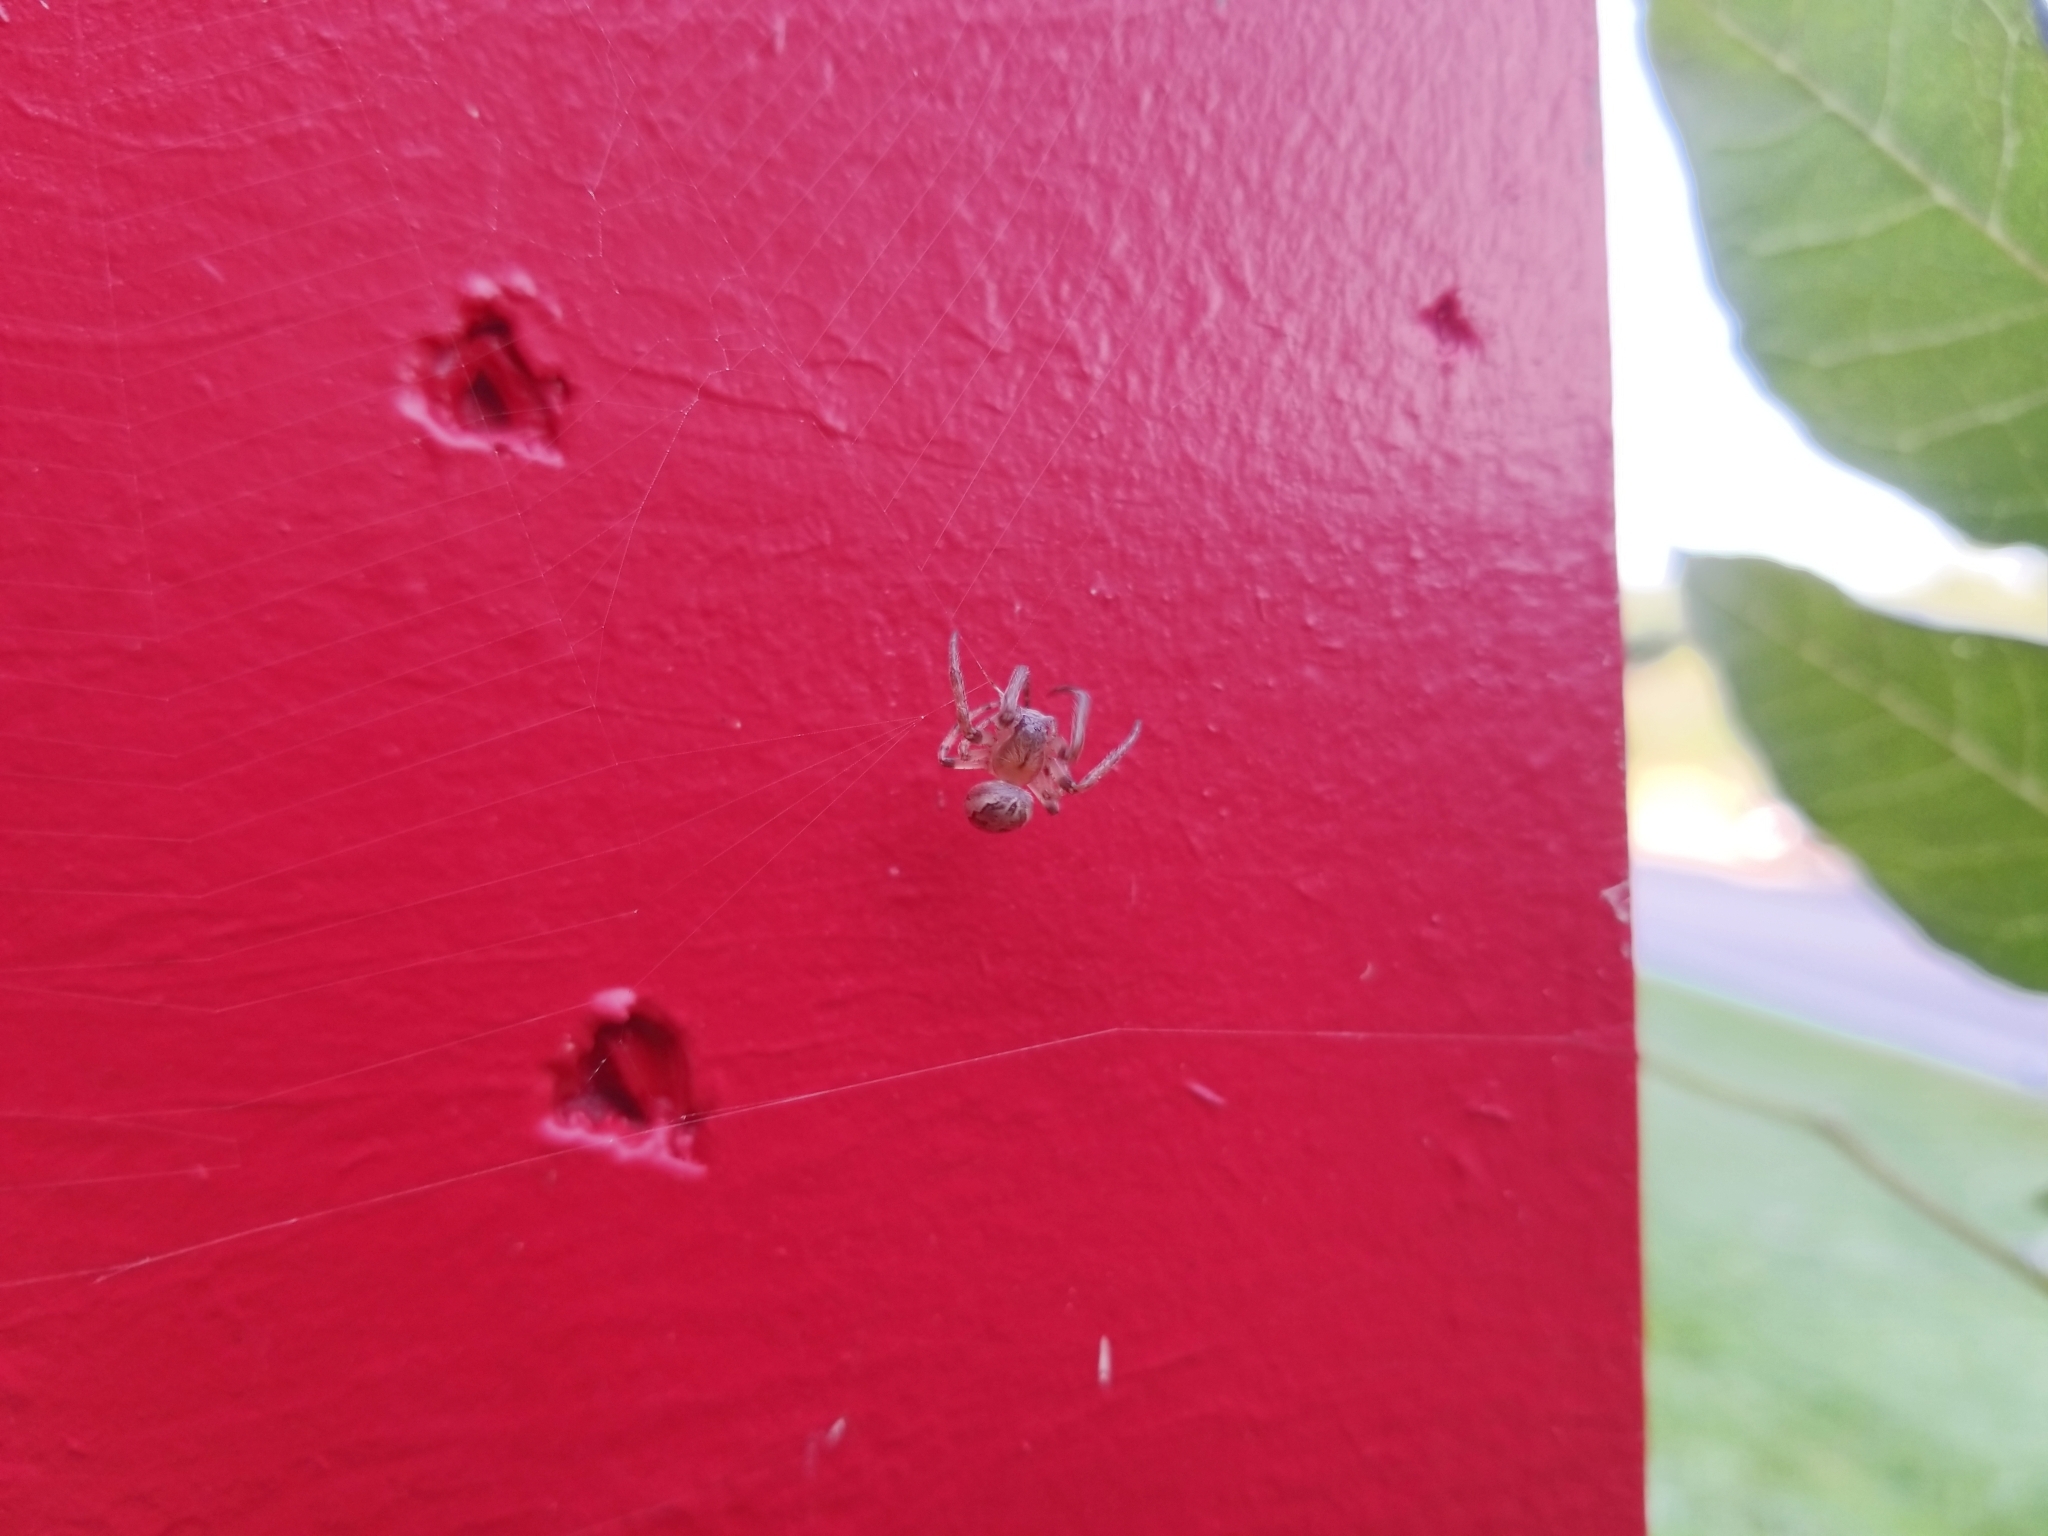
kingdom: Animalia
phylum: Arthropoda
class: Arachnida
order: Araneae
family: Araneidae
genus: Larinioides
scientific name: Larinioides cornutus
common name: Furrow orbweaver
